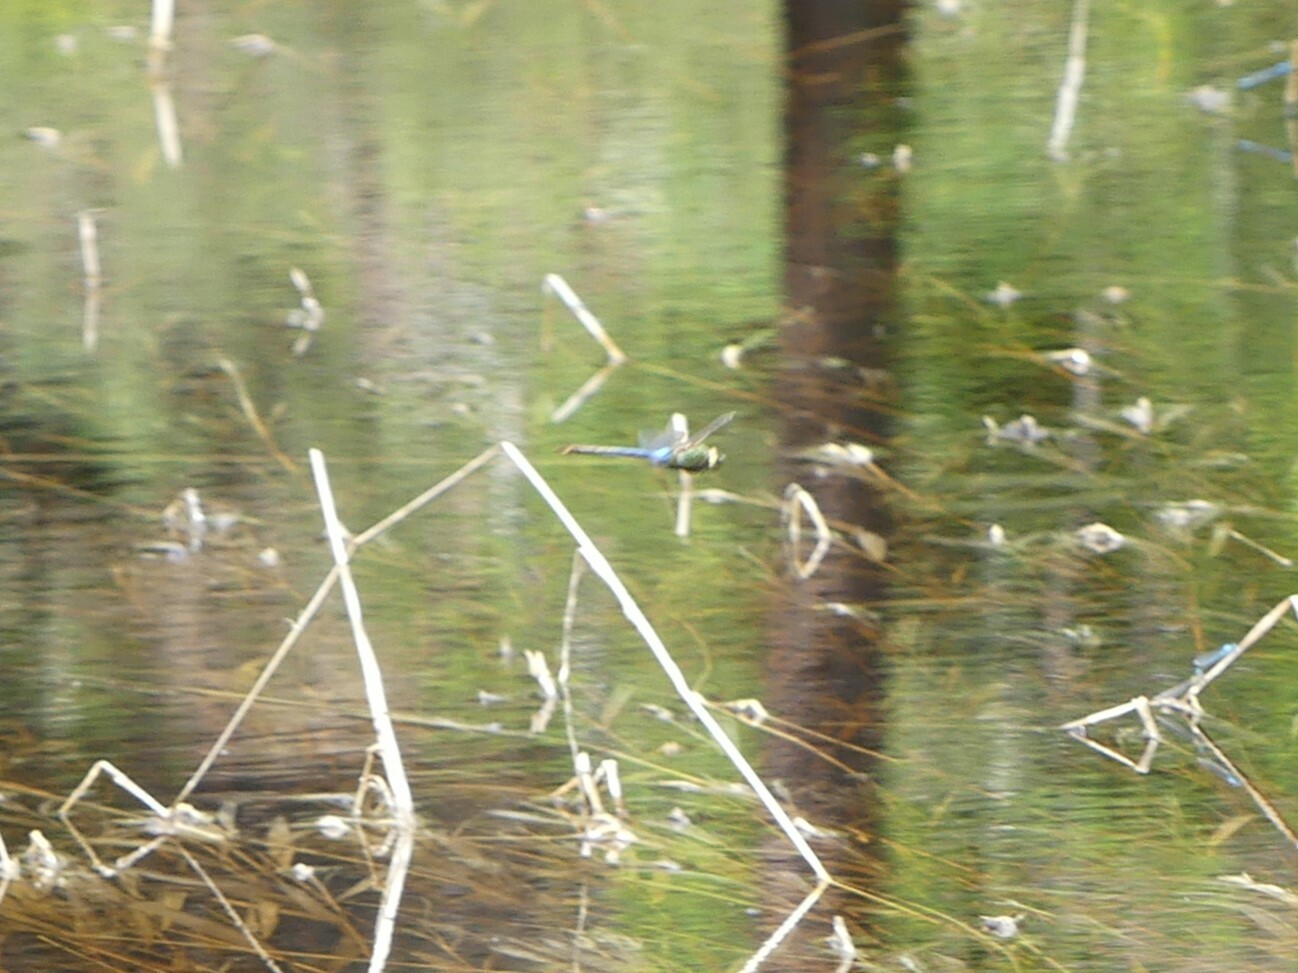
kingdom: Animalia
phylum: Arthropoda
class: Insecta
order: Odonata
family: Aeshnidae
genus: Anax
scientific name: Anax junius
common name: Common green darner
